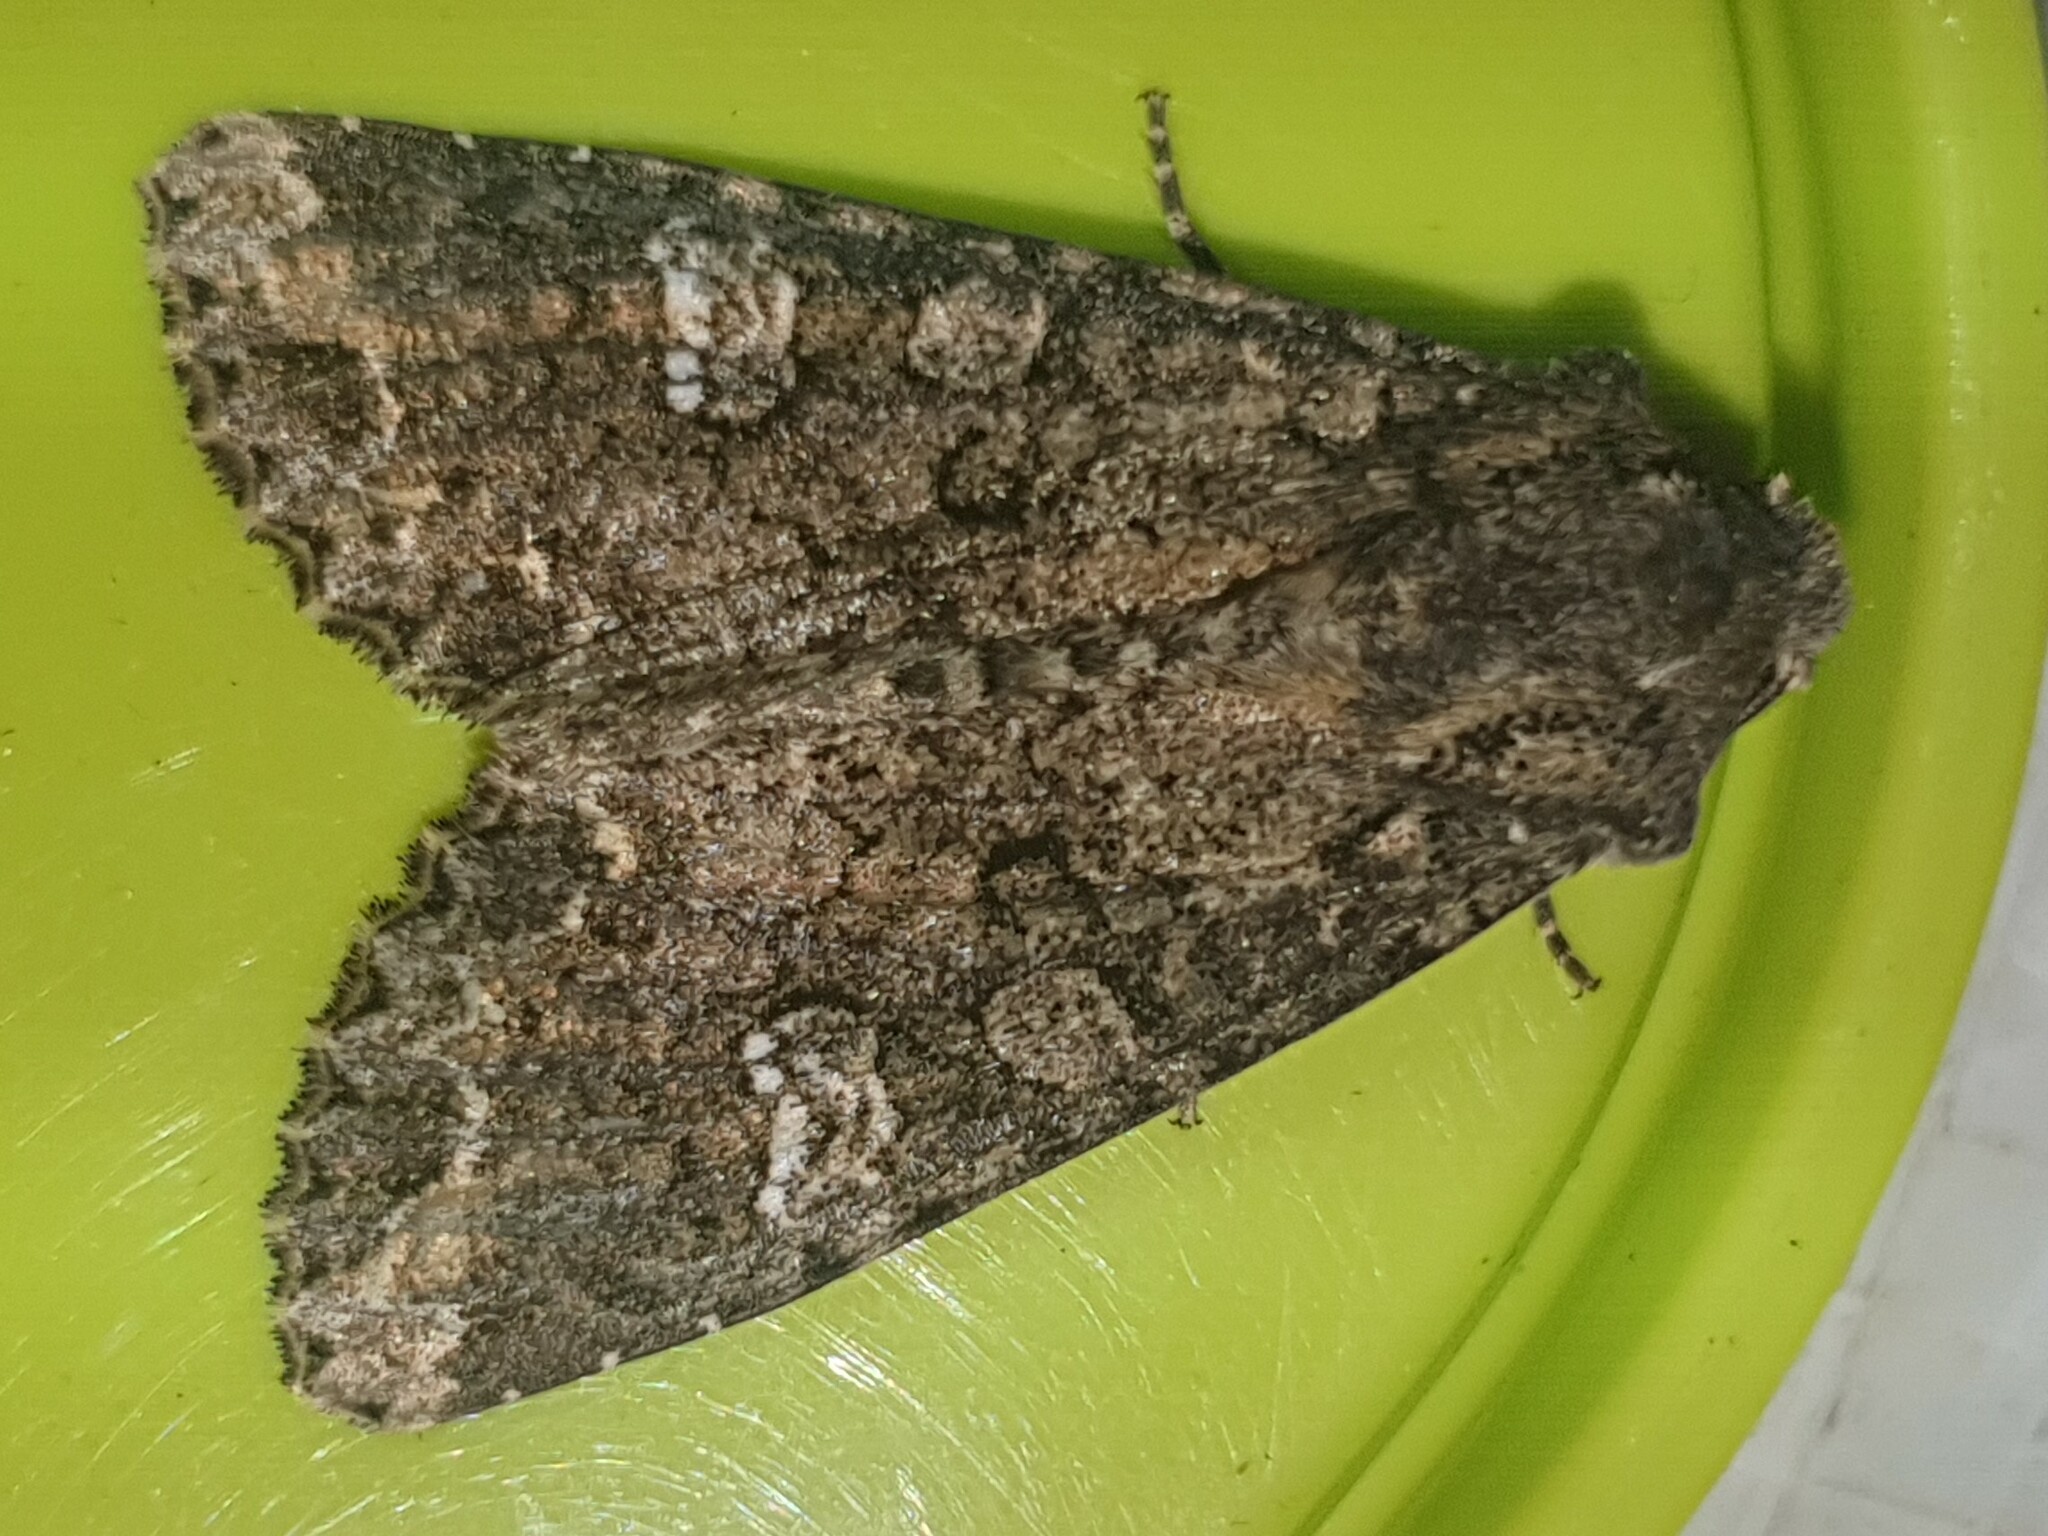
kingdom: Animalia
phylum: Arthropoda
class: Insecta
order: Lepidoptera
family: Noctuidae
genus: Mamestra
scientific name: Mamestra brassicae
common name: Cabbage moth
